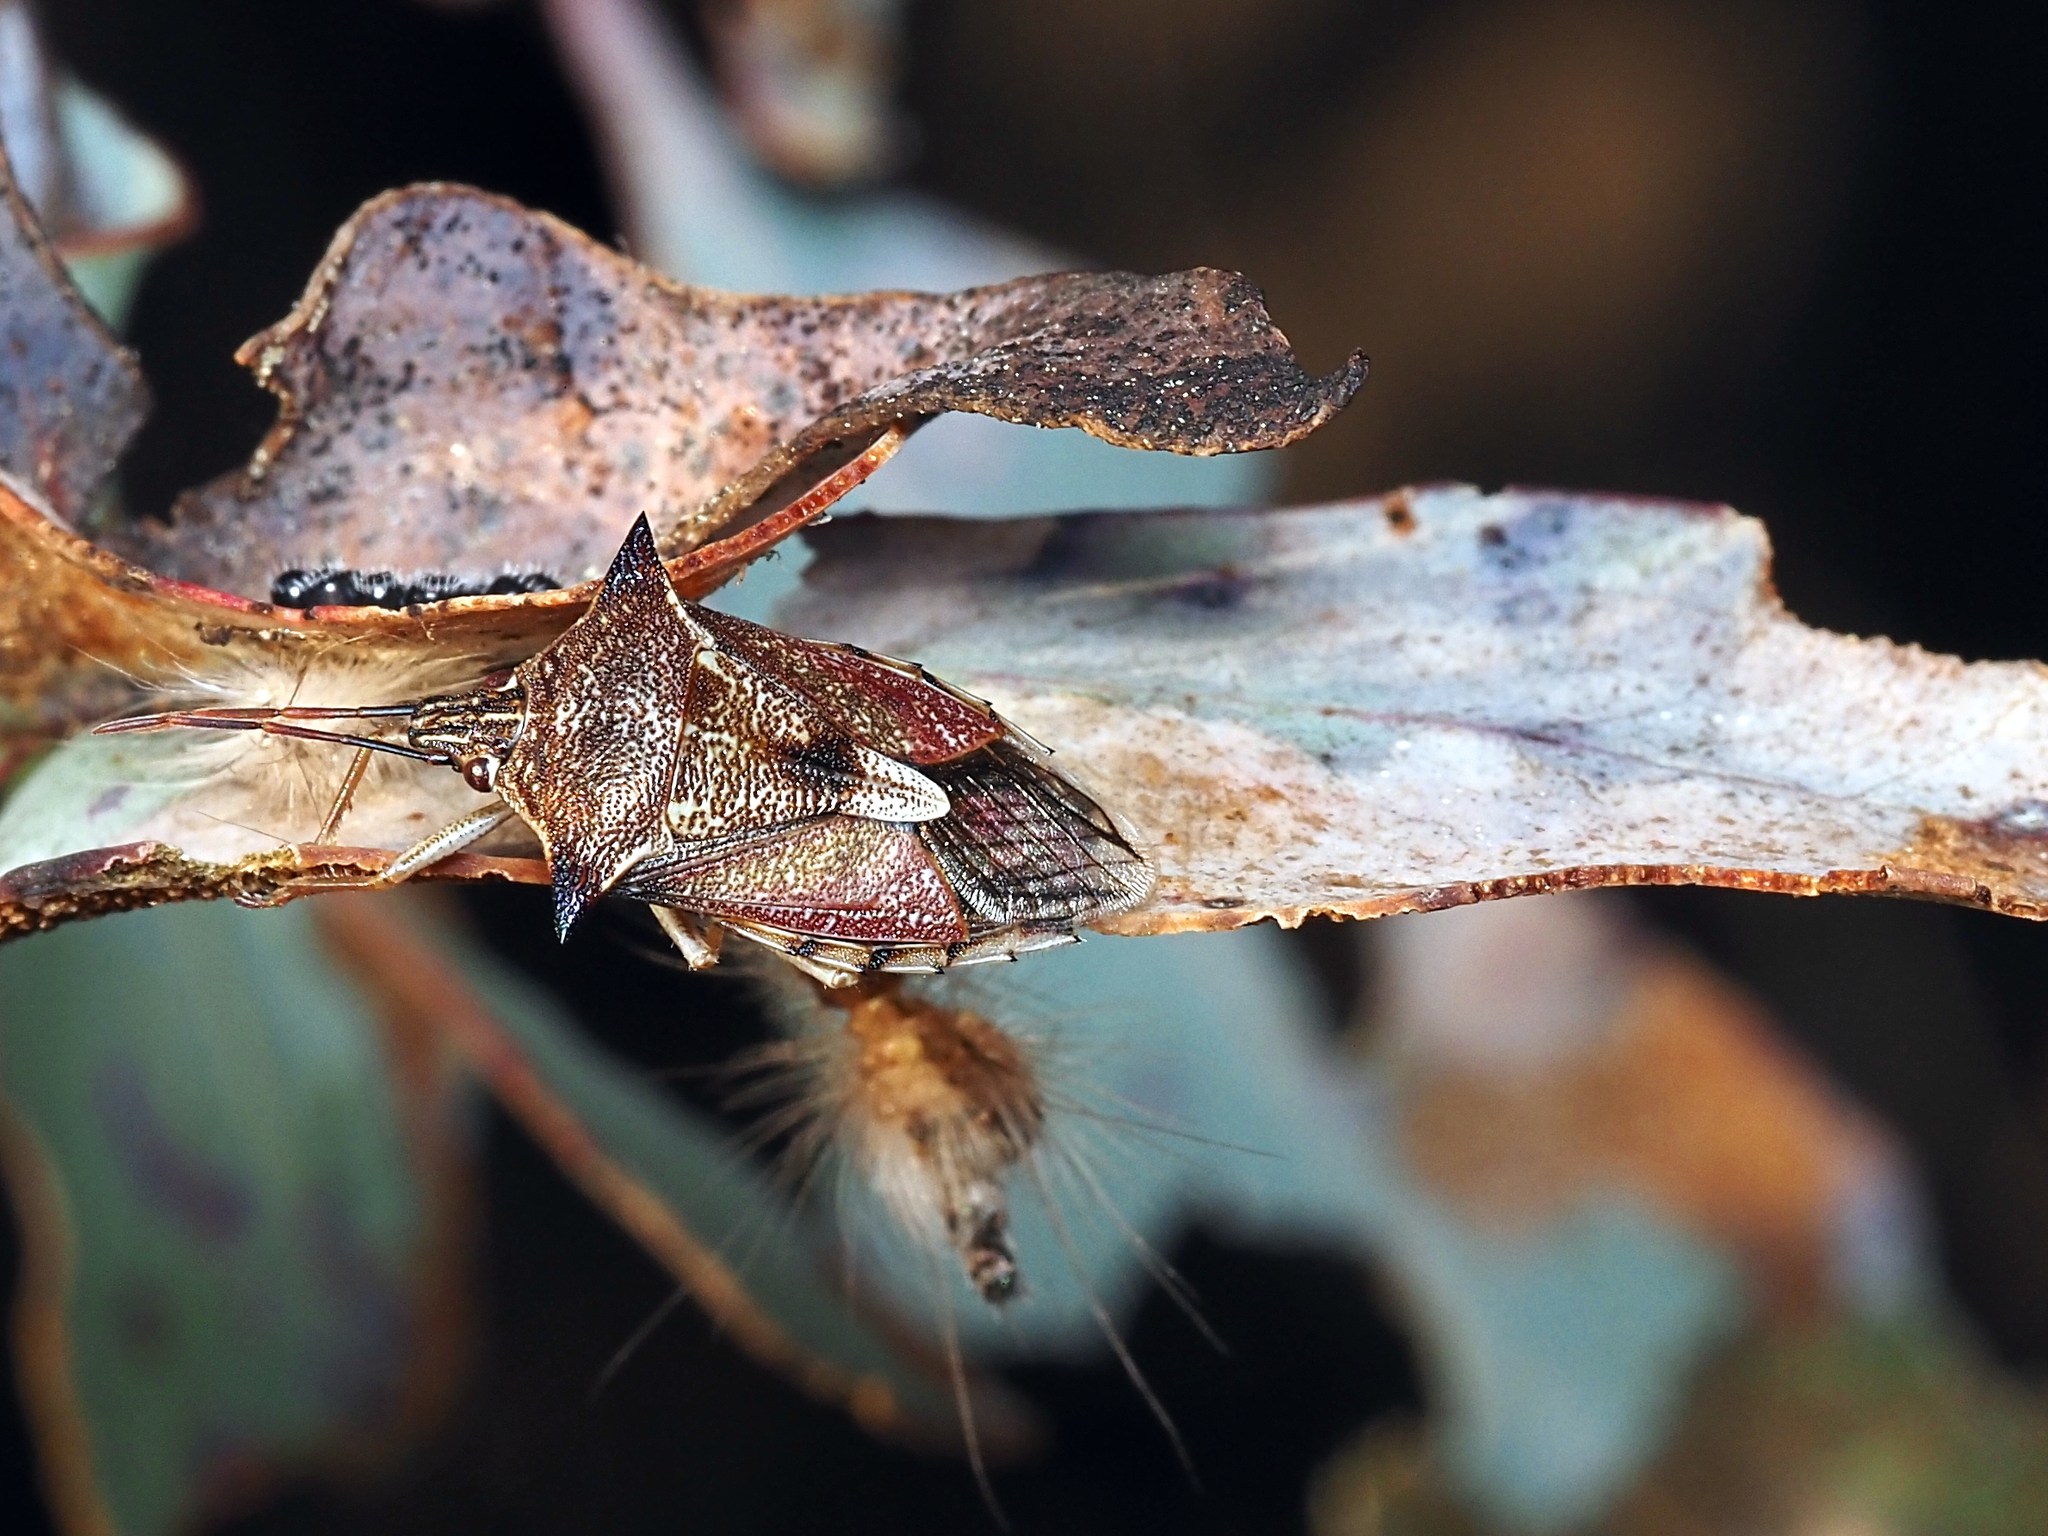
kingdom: Animalia
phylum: Arthropoda
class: Insecta
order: Hemiptera
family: Pentatomidae
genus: Oechalia
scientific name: Oechalia schellenbergii
